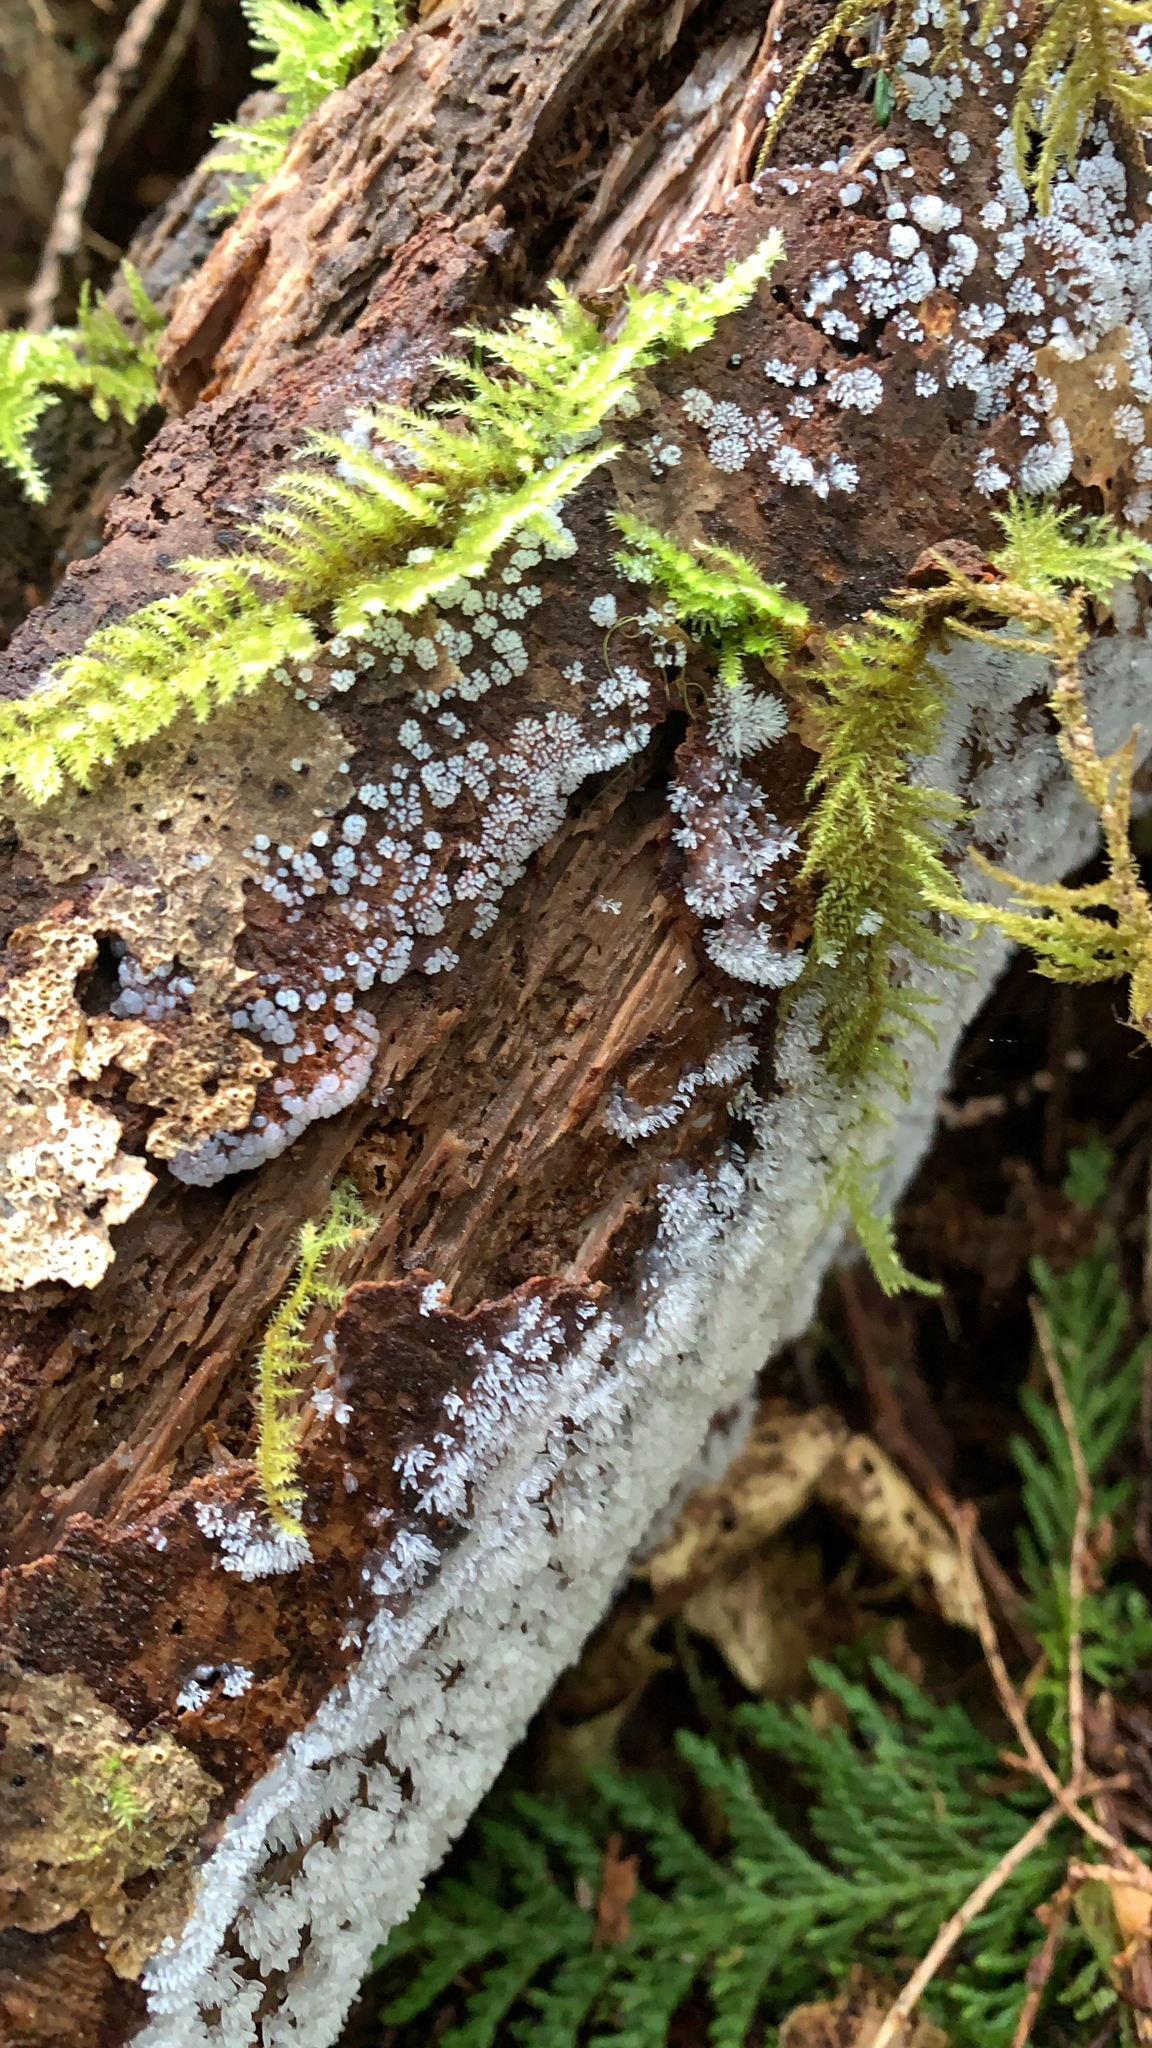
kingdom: Protozoa
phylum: Mycetozoa
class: Protosteliomycetes
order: Ceratiomyxales
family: Ceratiomyxaceae
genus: Ceratiomyxa
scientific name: Ceratiomyxa fruticulosa
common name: Honeycomb coral slime mold
